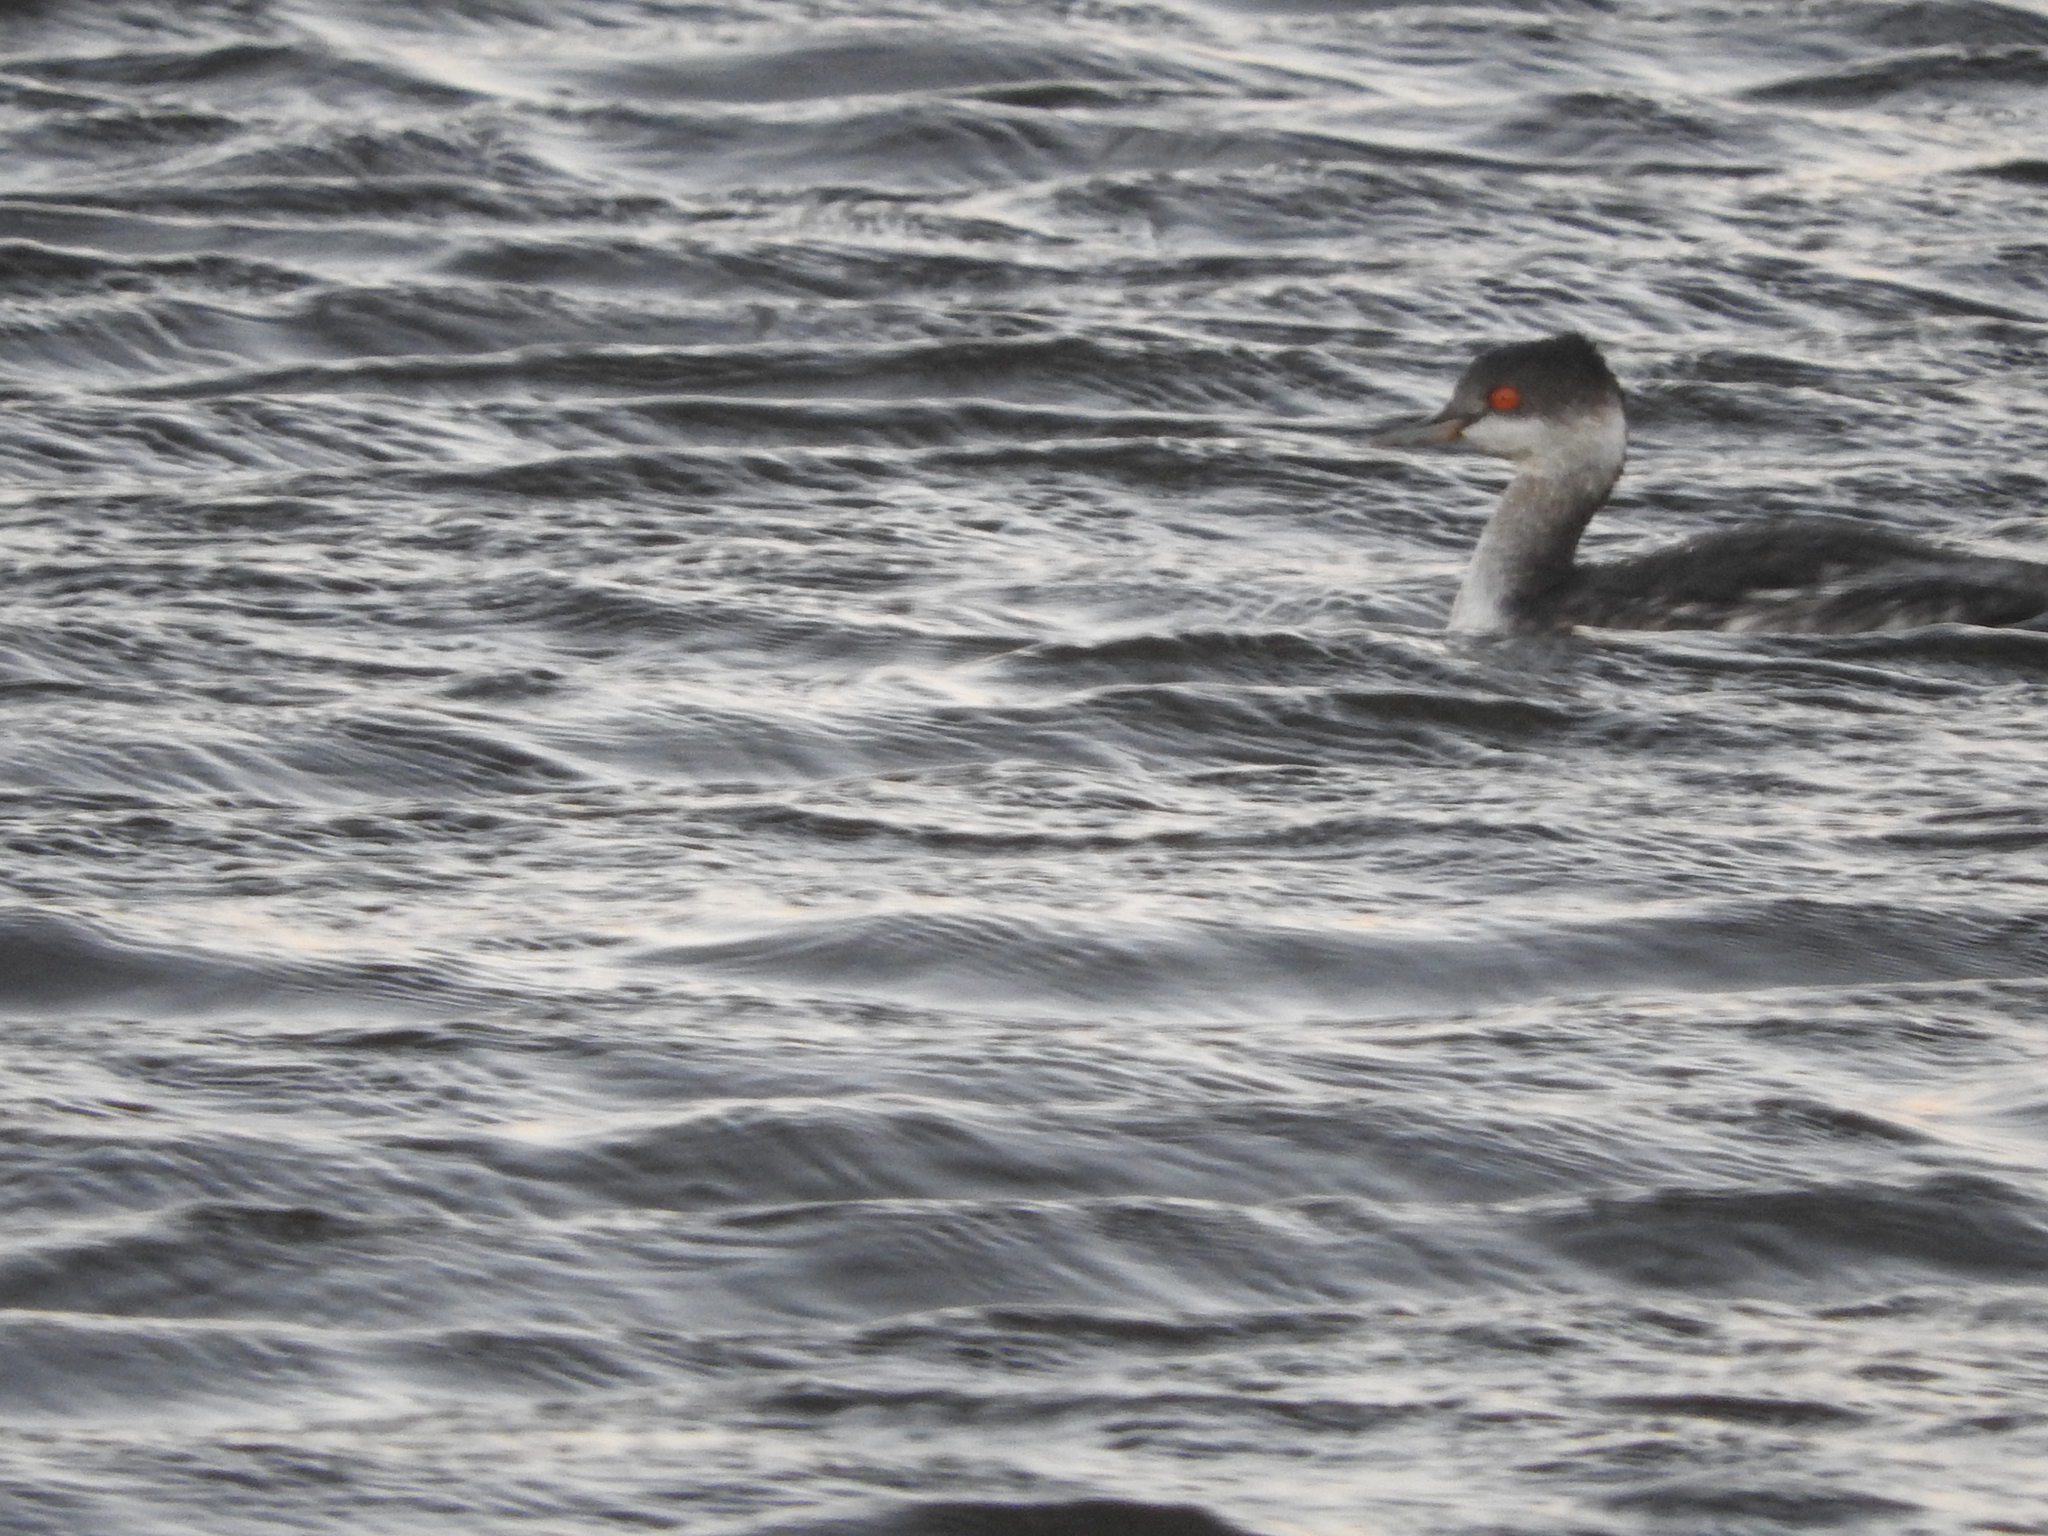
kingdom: Animalia
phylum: Chordata
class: Aves
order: Podicipediformes
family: Podicipedidae
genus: Podiceps
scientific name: Podiceps nigricollis
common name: Black-necked grebe
